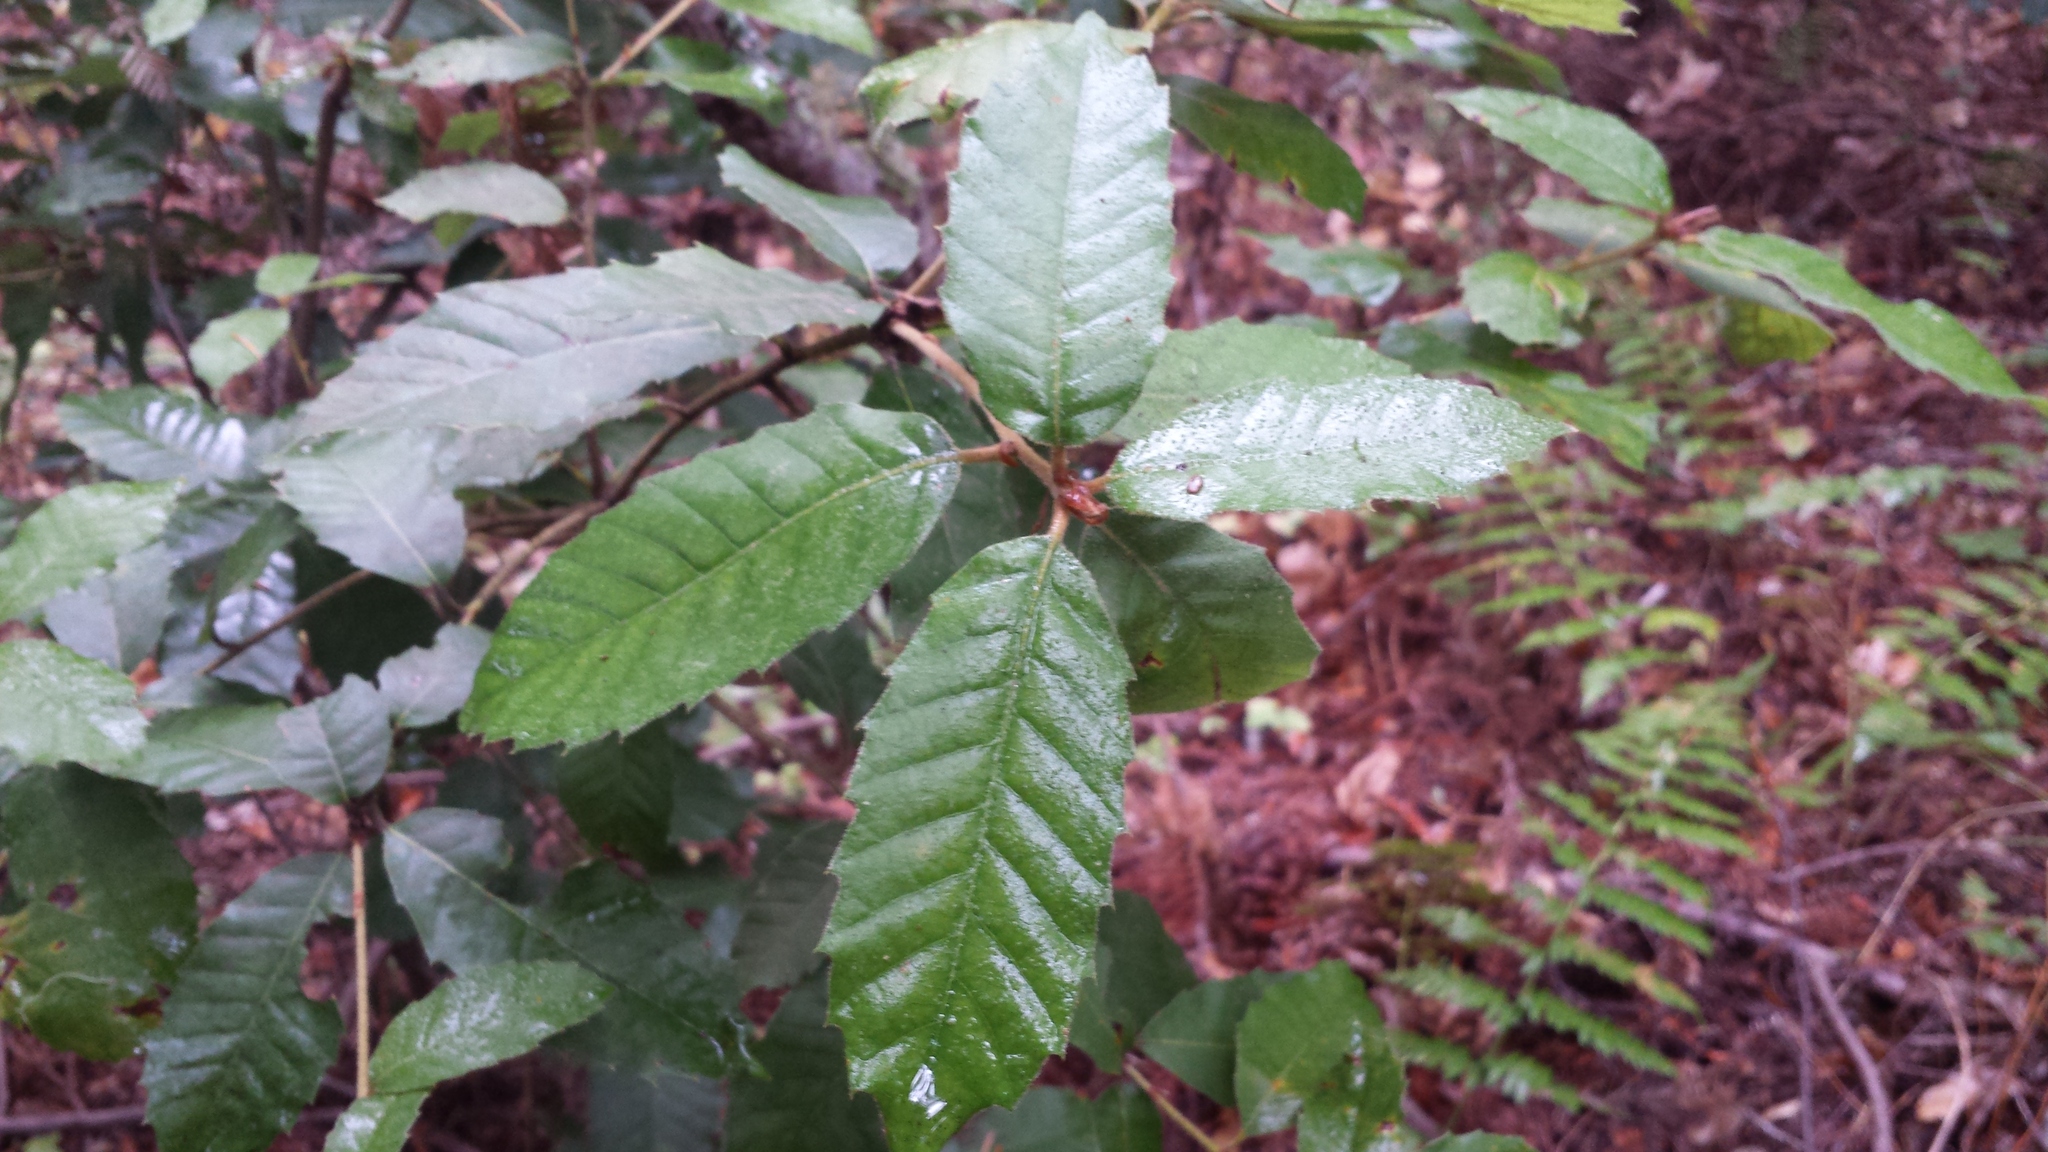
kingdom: Plantae
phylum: Tracheophyta
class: Magnoliopsida
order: Fagales
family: Fagaceae
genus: Notholithocarpus
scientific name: Notholithocarpus densiflorus
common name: Tan bark oak
